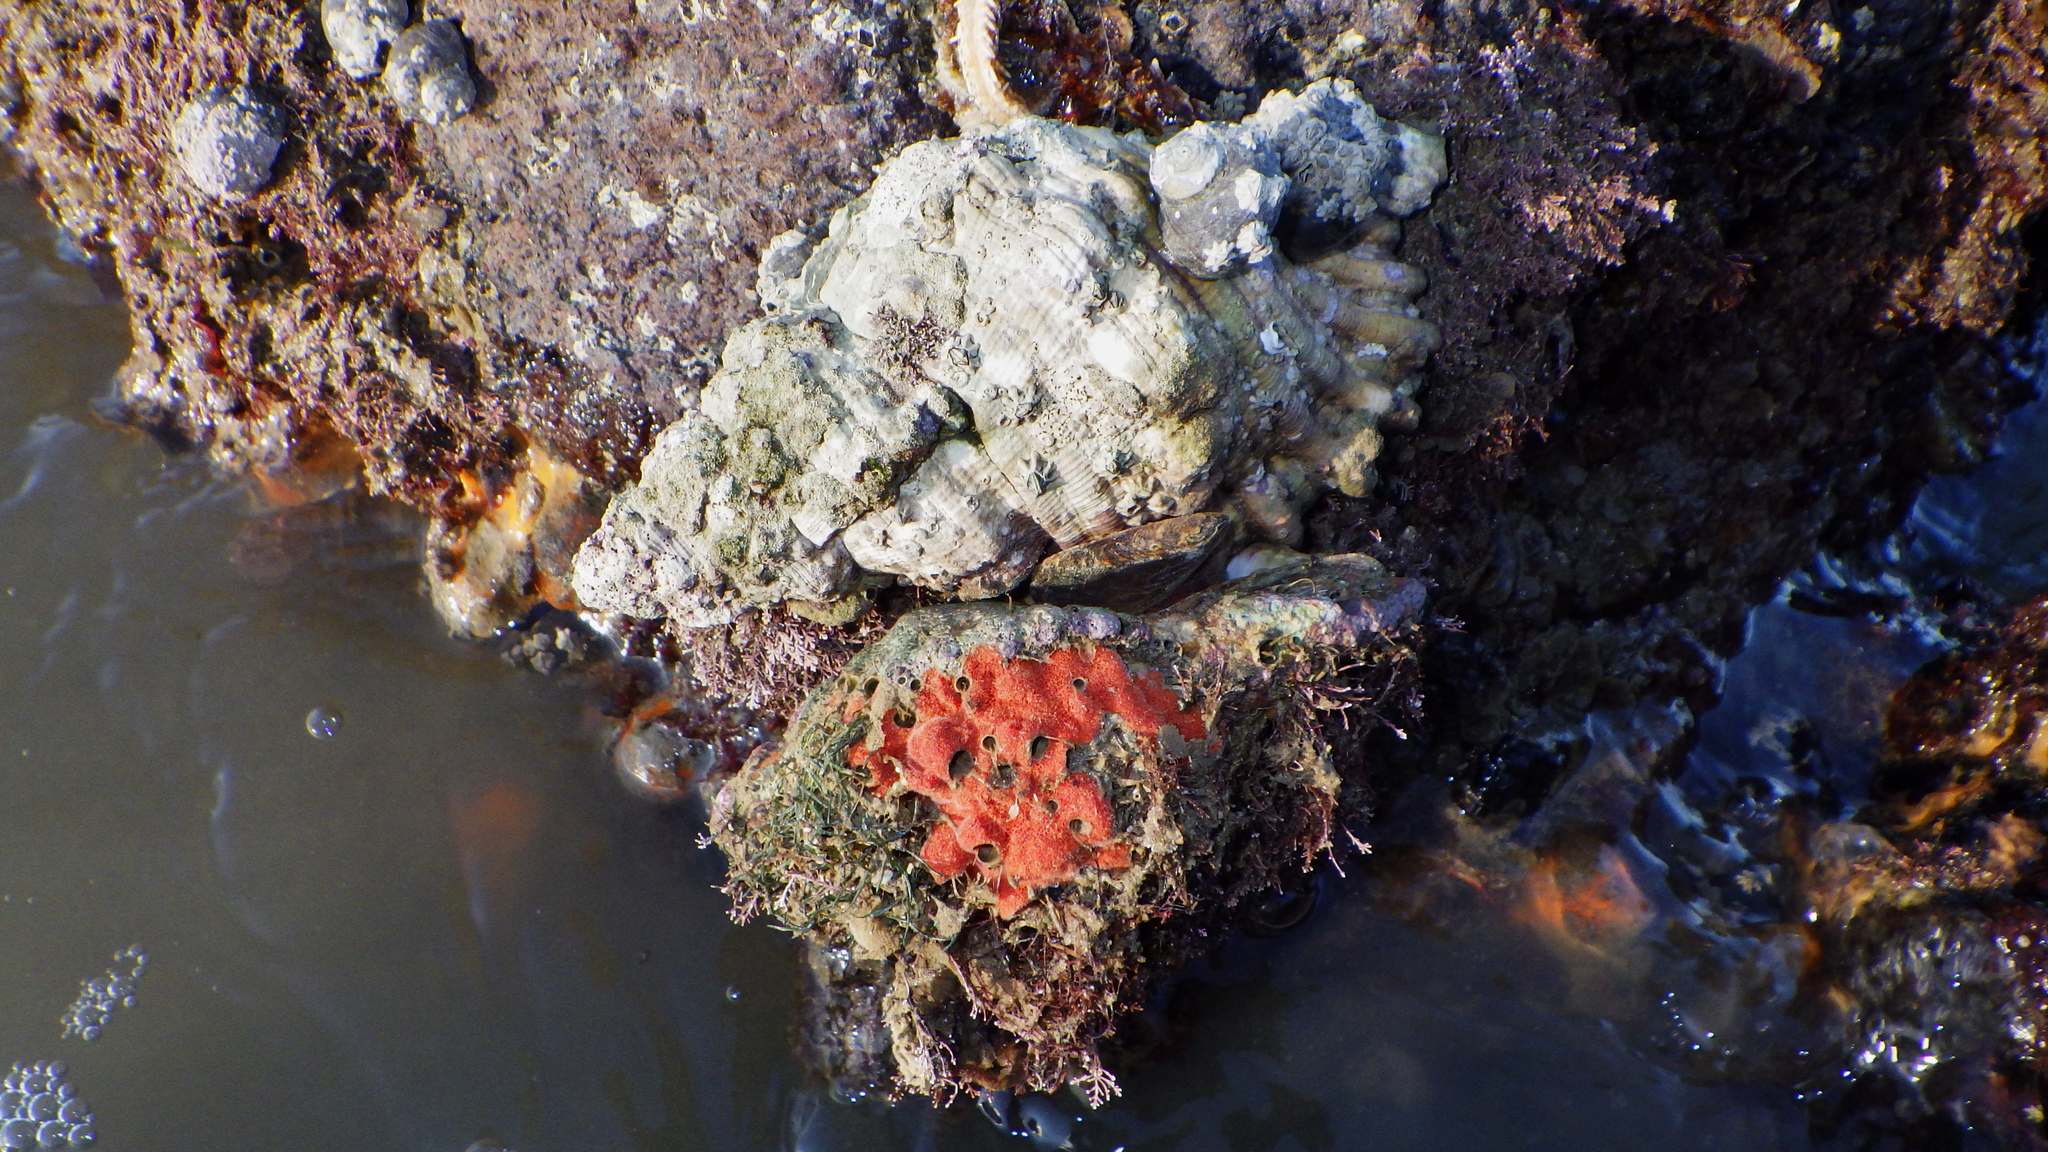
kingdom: Animalia
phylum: Mollusca
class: Gastropoda
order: Littorinimorpha
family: Cymatiidae
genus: Cabestana
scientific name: Cabestana spengleri
